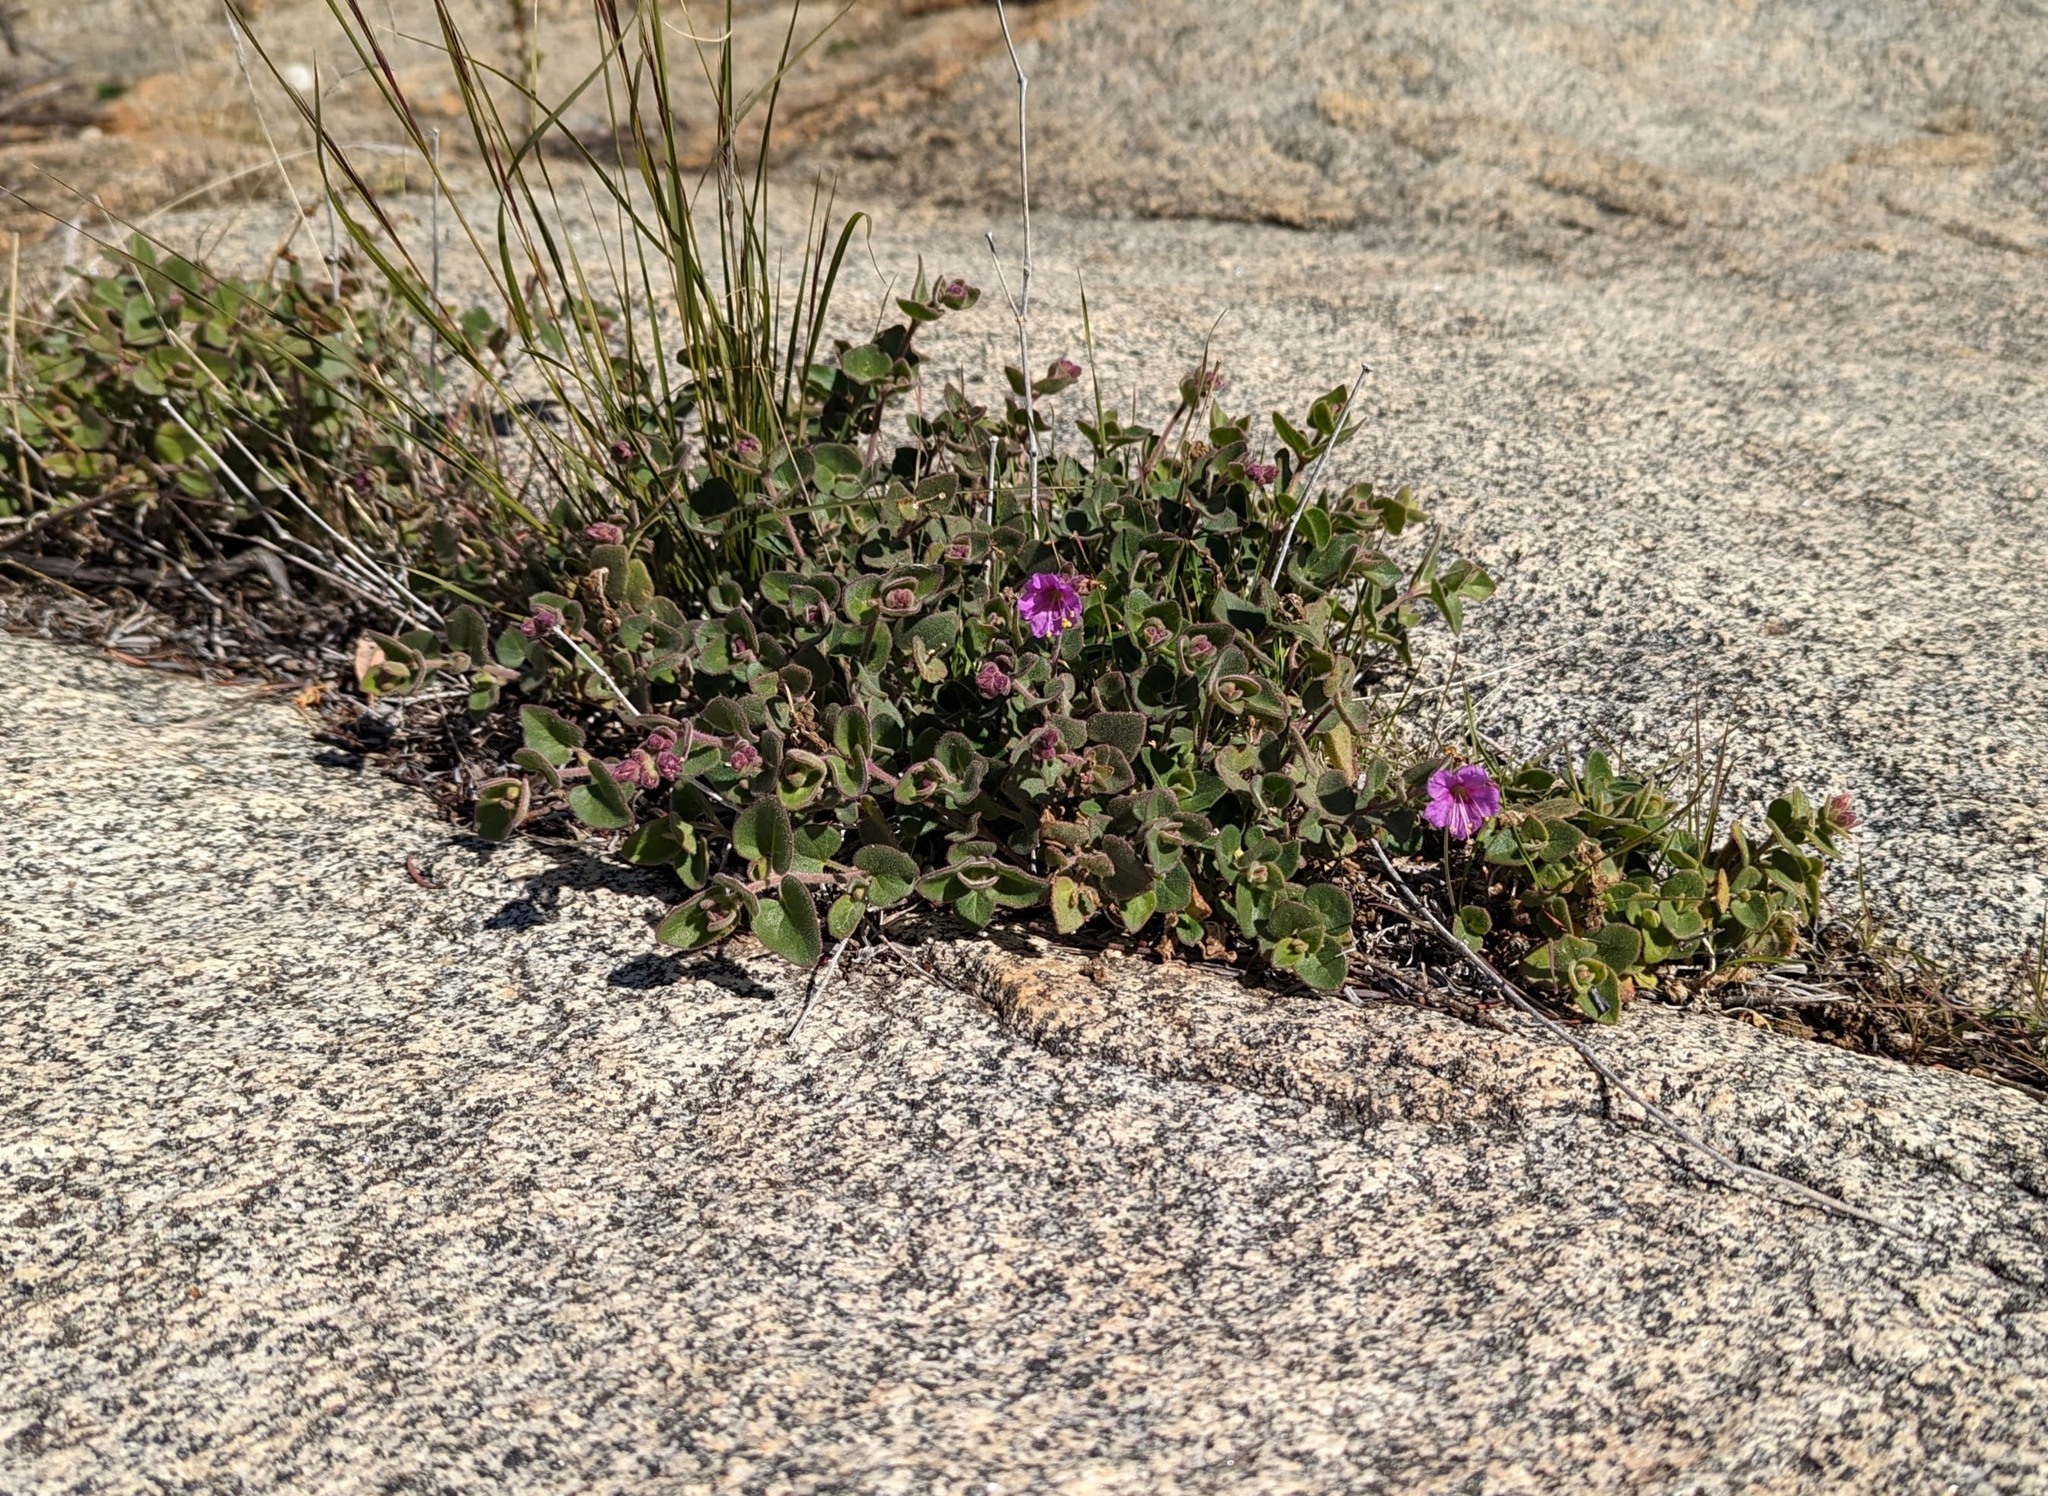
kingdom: Plantae
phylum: Tracheophyta
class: Magnoliopsida
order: Caryophyllales
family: Nyctaginaceae
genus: Mirabilis
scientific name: Mirabilis laevis
